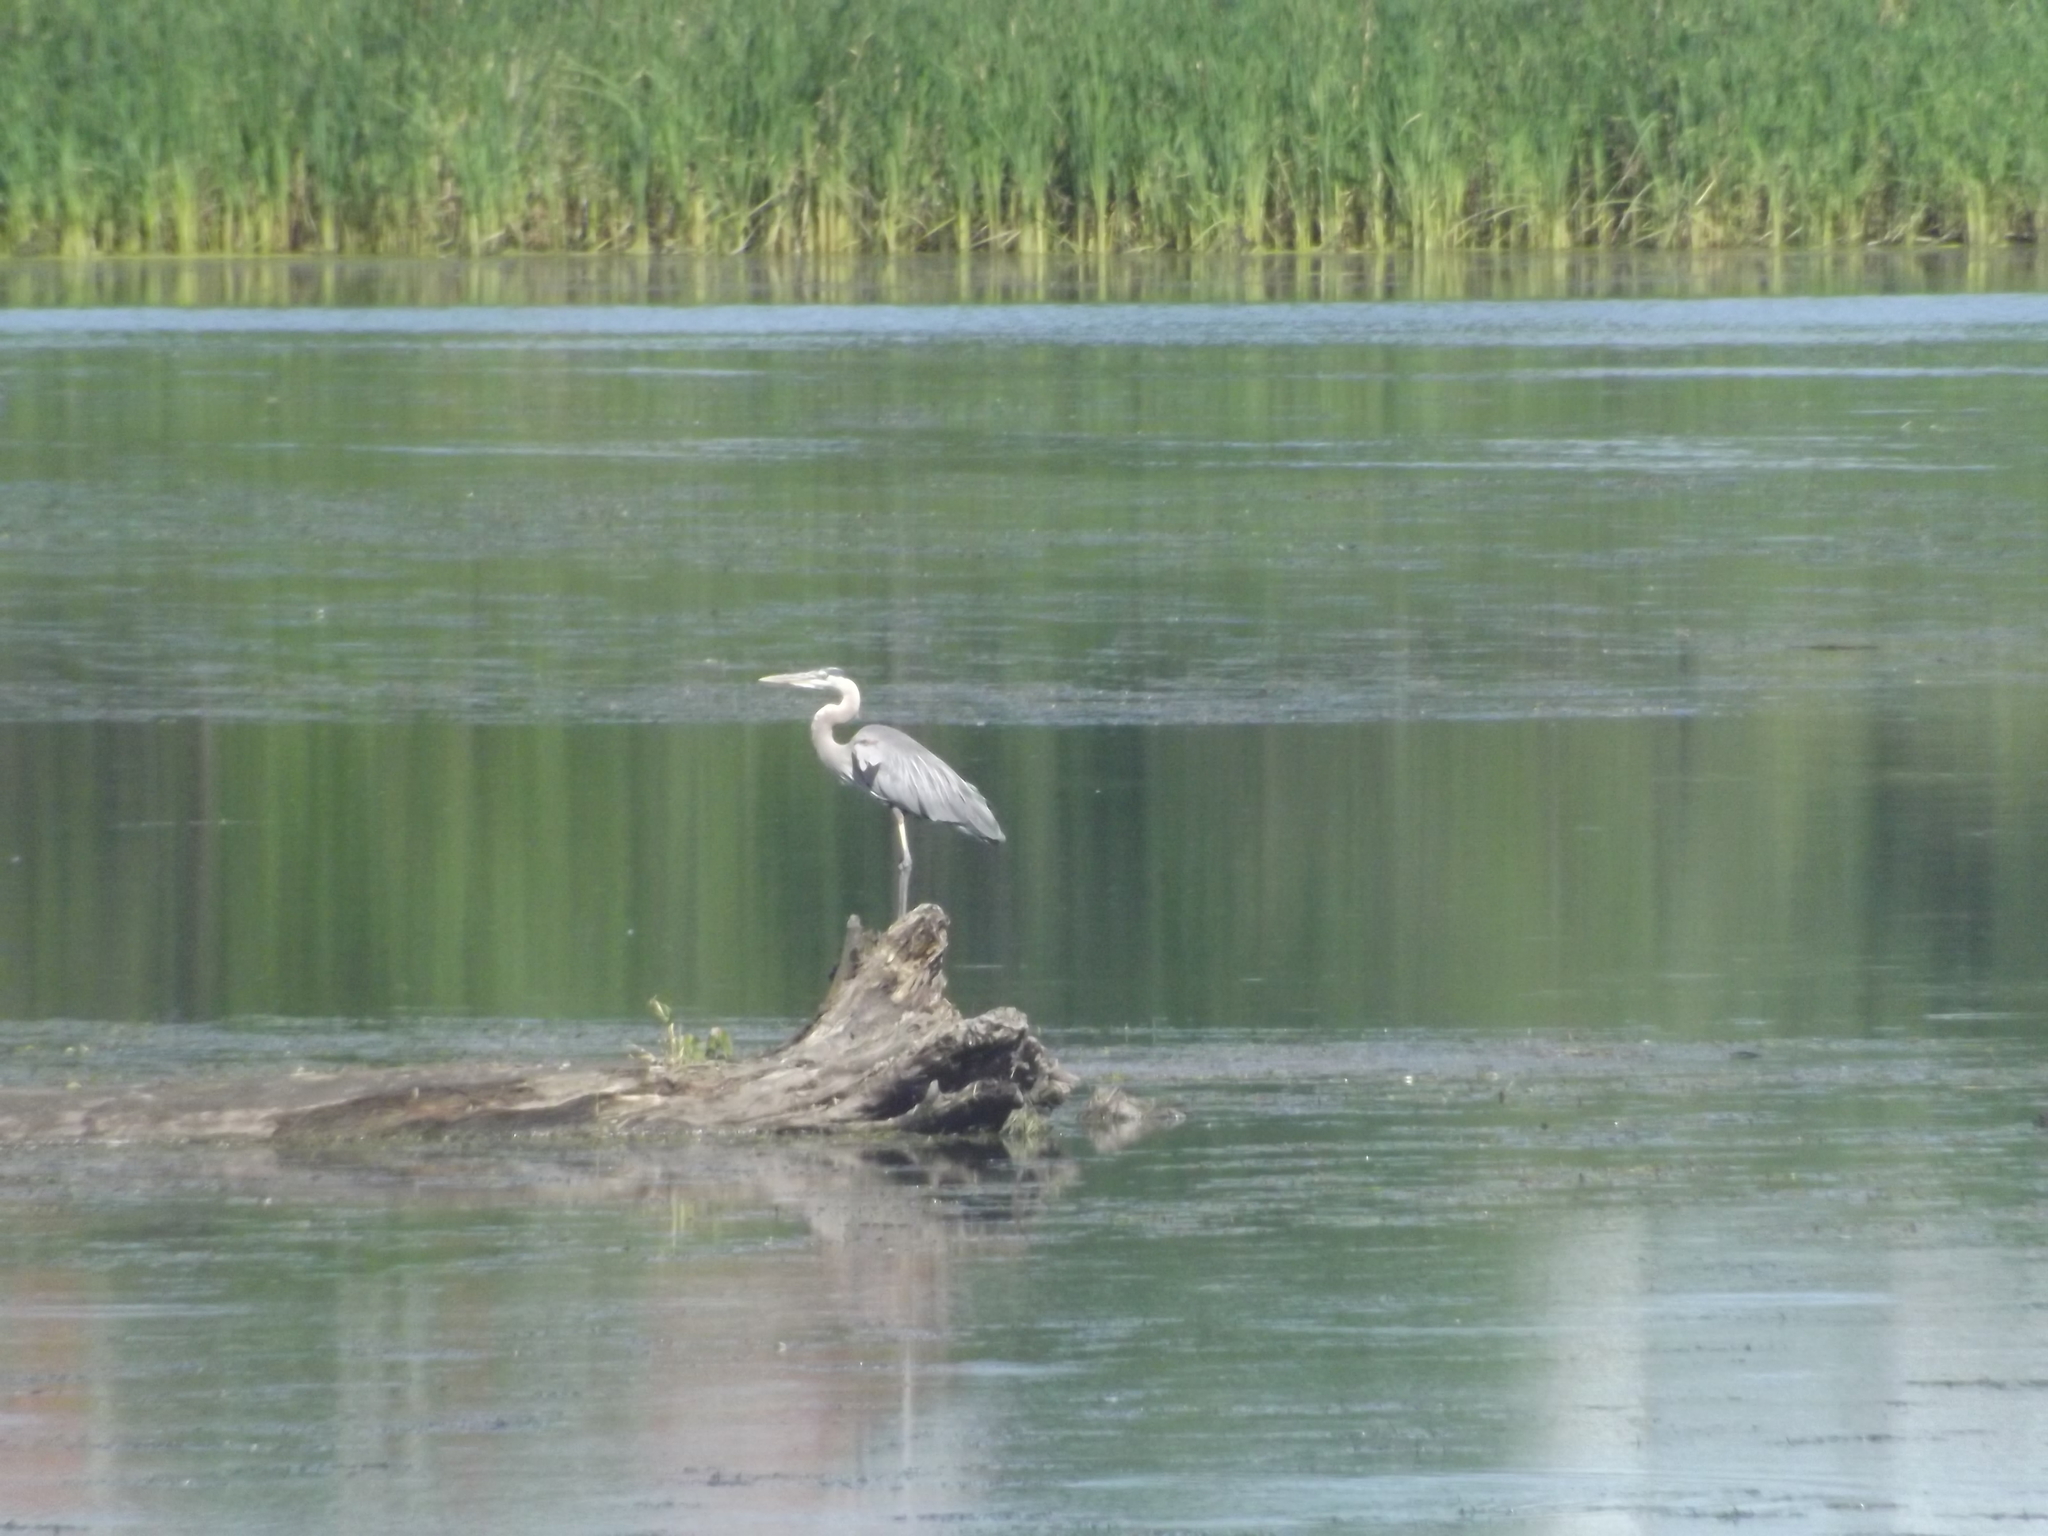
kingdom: Animalia
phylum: Chordata
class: Aves
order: Pelecaniformes
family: Ardeidae
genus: Ardea
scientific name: Ardea herodias
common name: Great blue heron
